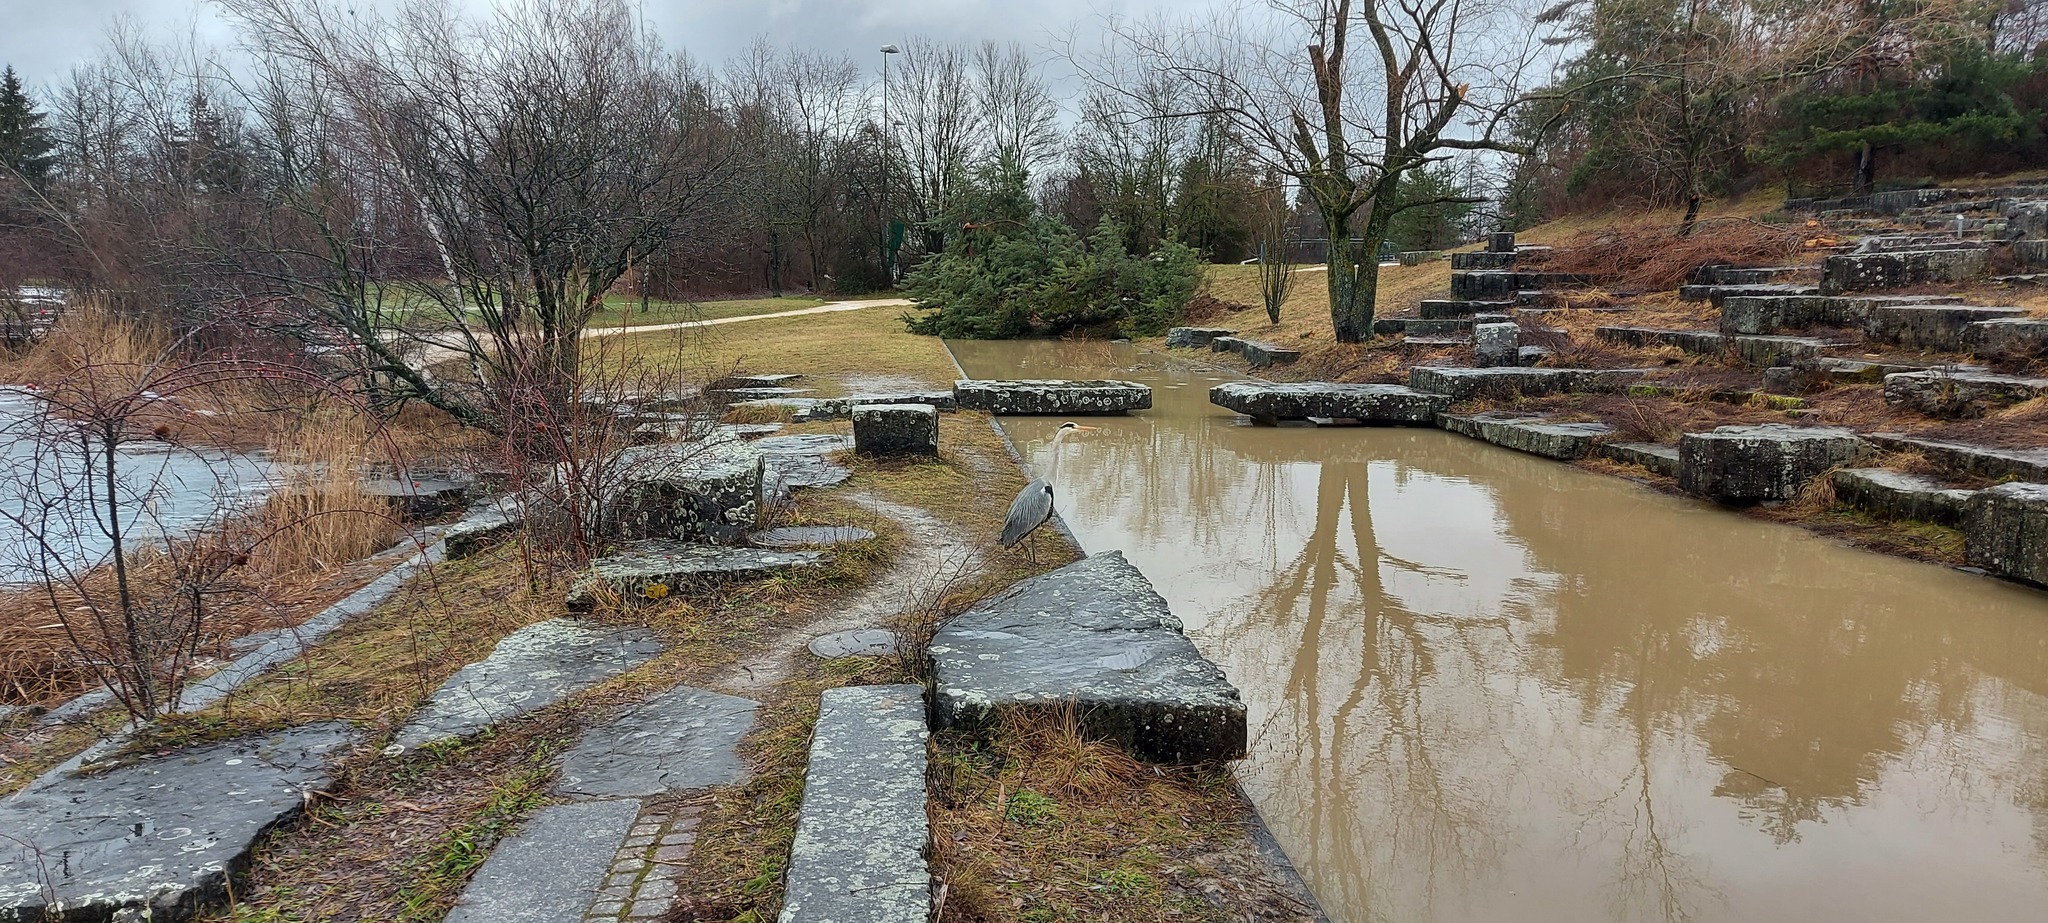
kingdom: Animalia
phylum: Chordata
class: Aves
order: Pelecaniformes
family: Ardeidae
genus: Ardea
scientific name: Ardea cinerea
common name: Grey heron
